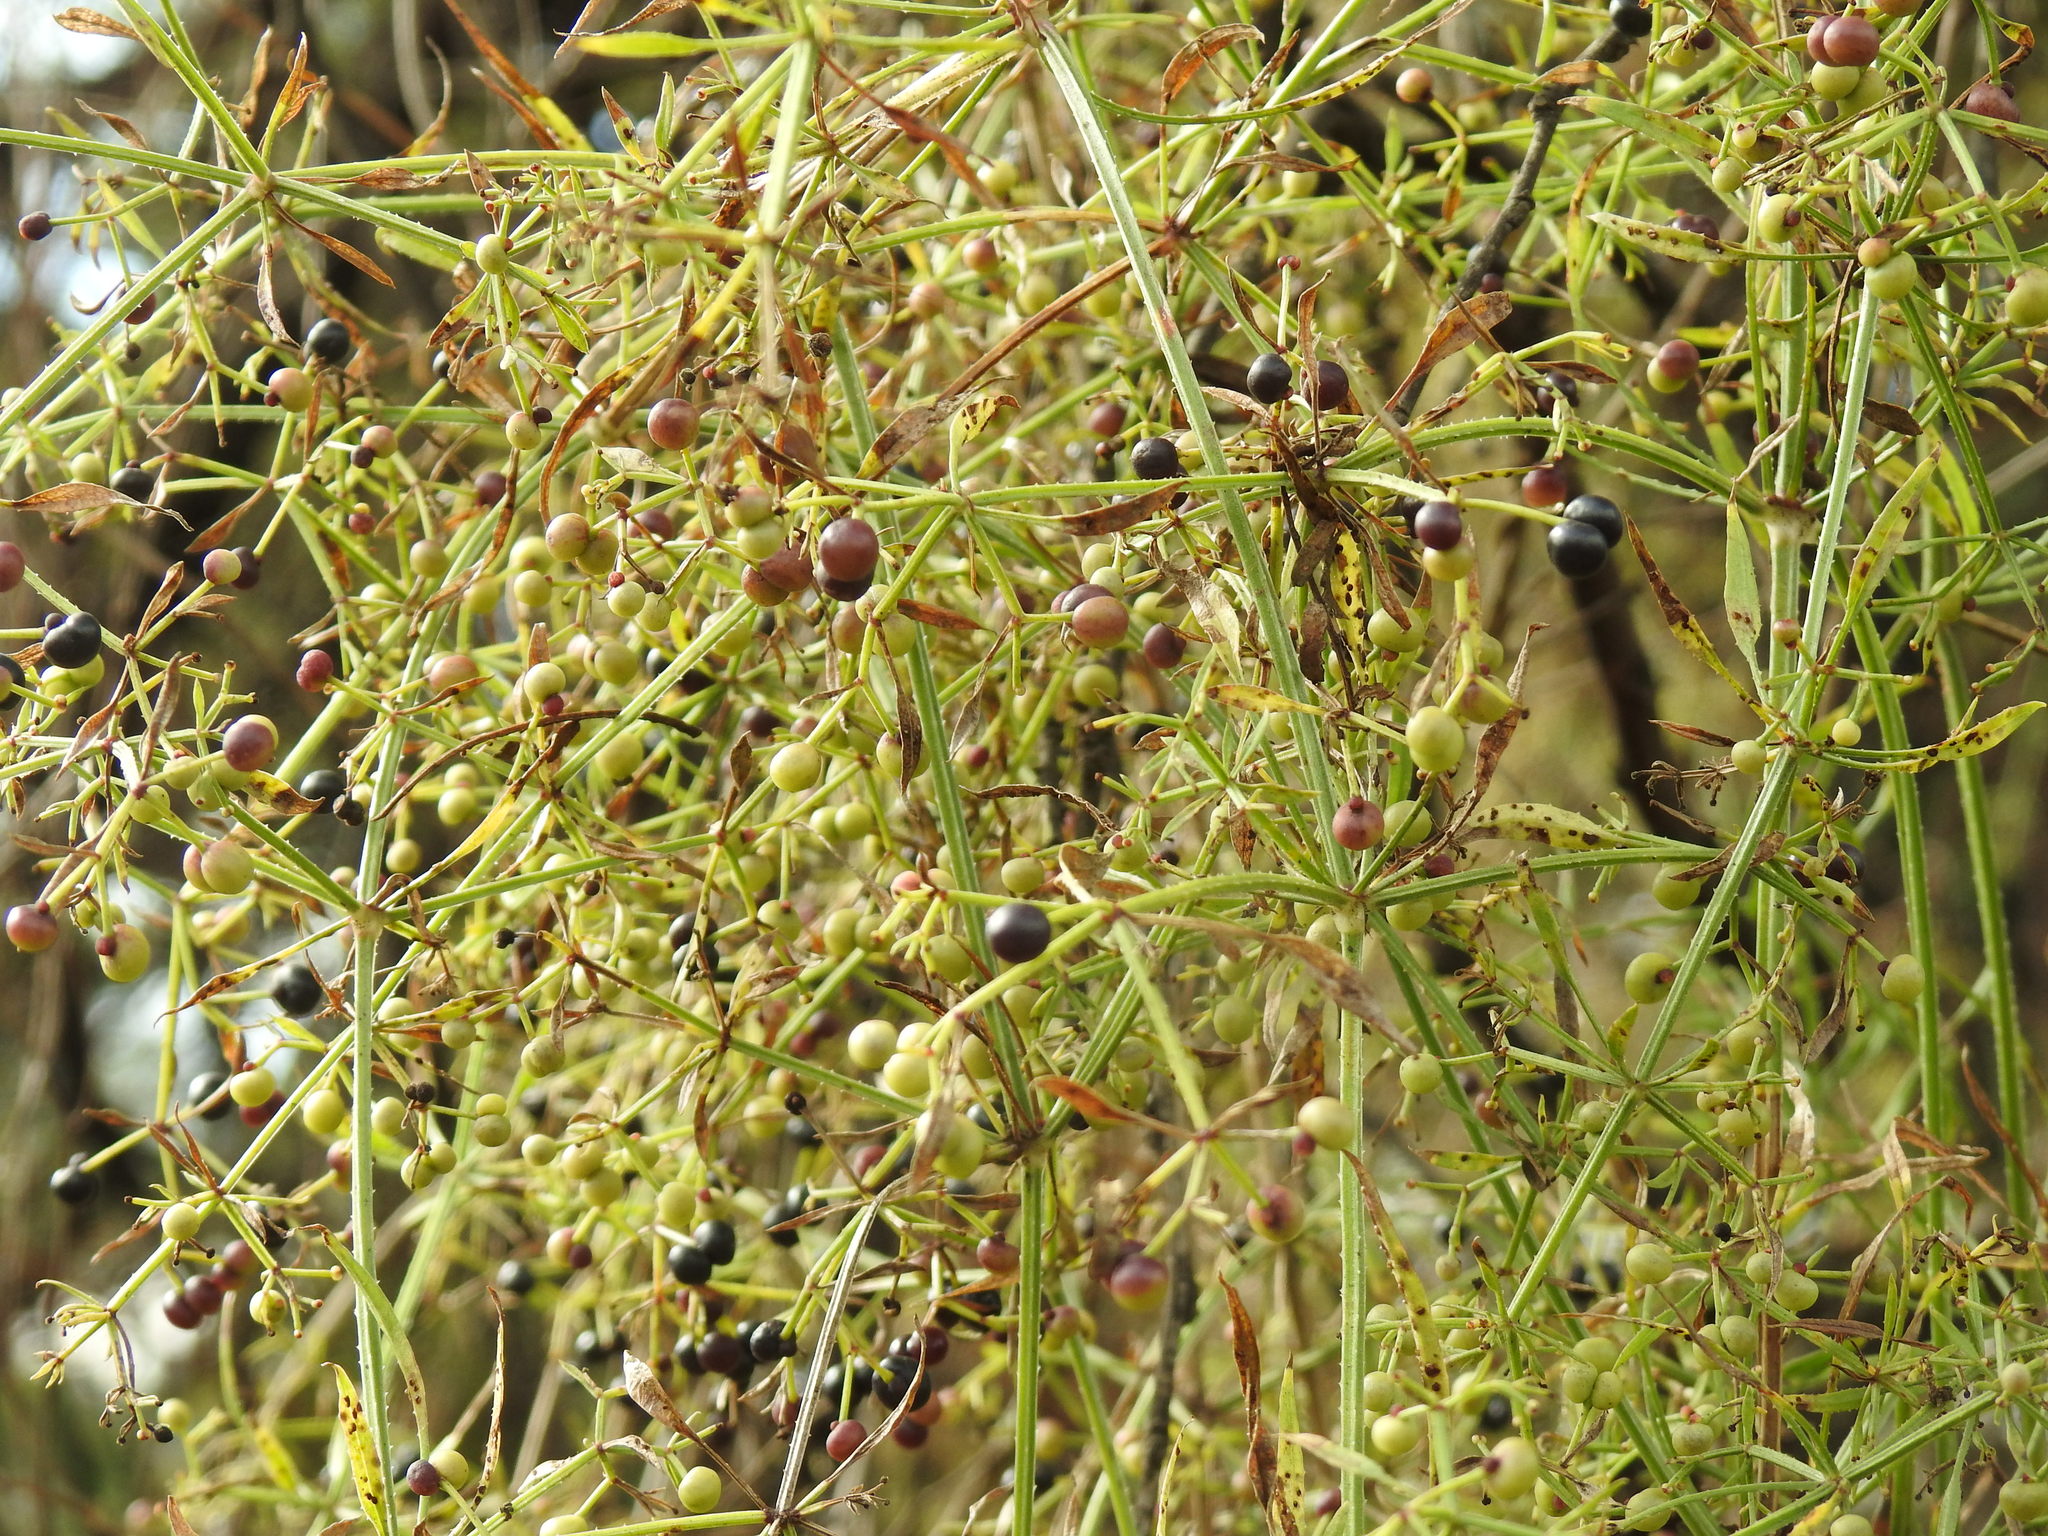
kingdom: Plantae
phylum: Tracheophyta
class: Magnoliopsida
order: Gentianales
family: Rubiaceae
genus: Rubia
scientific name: Rubia horrida
